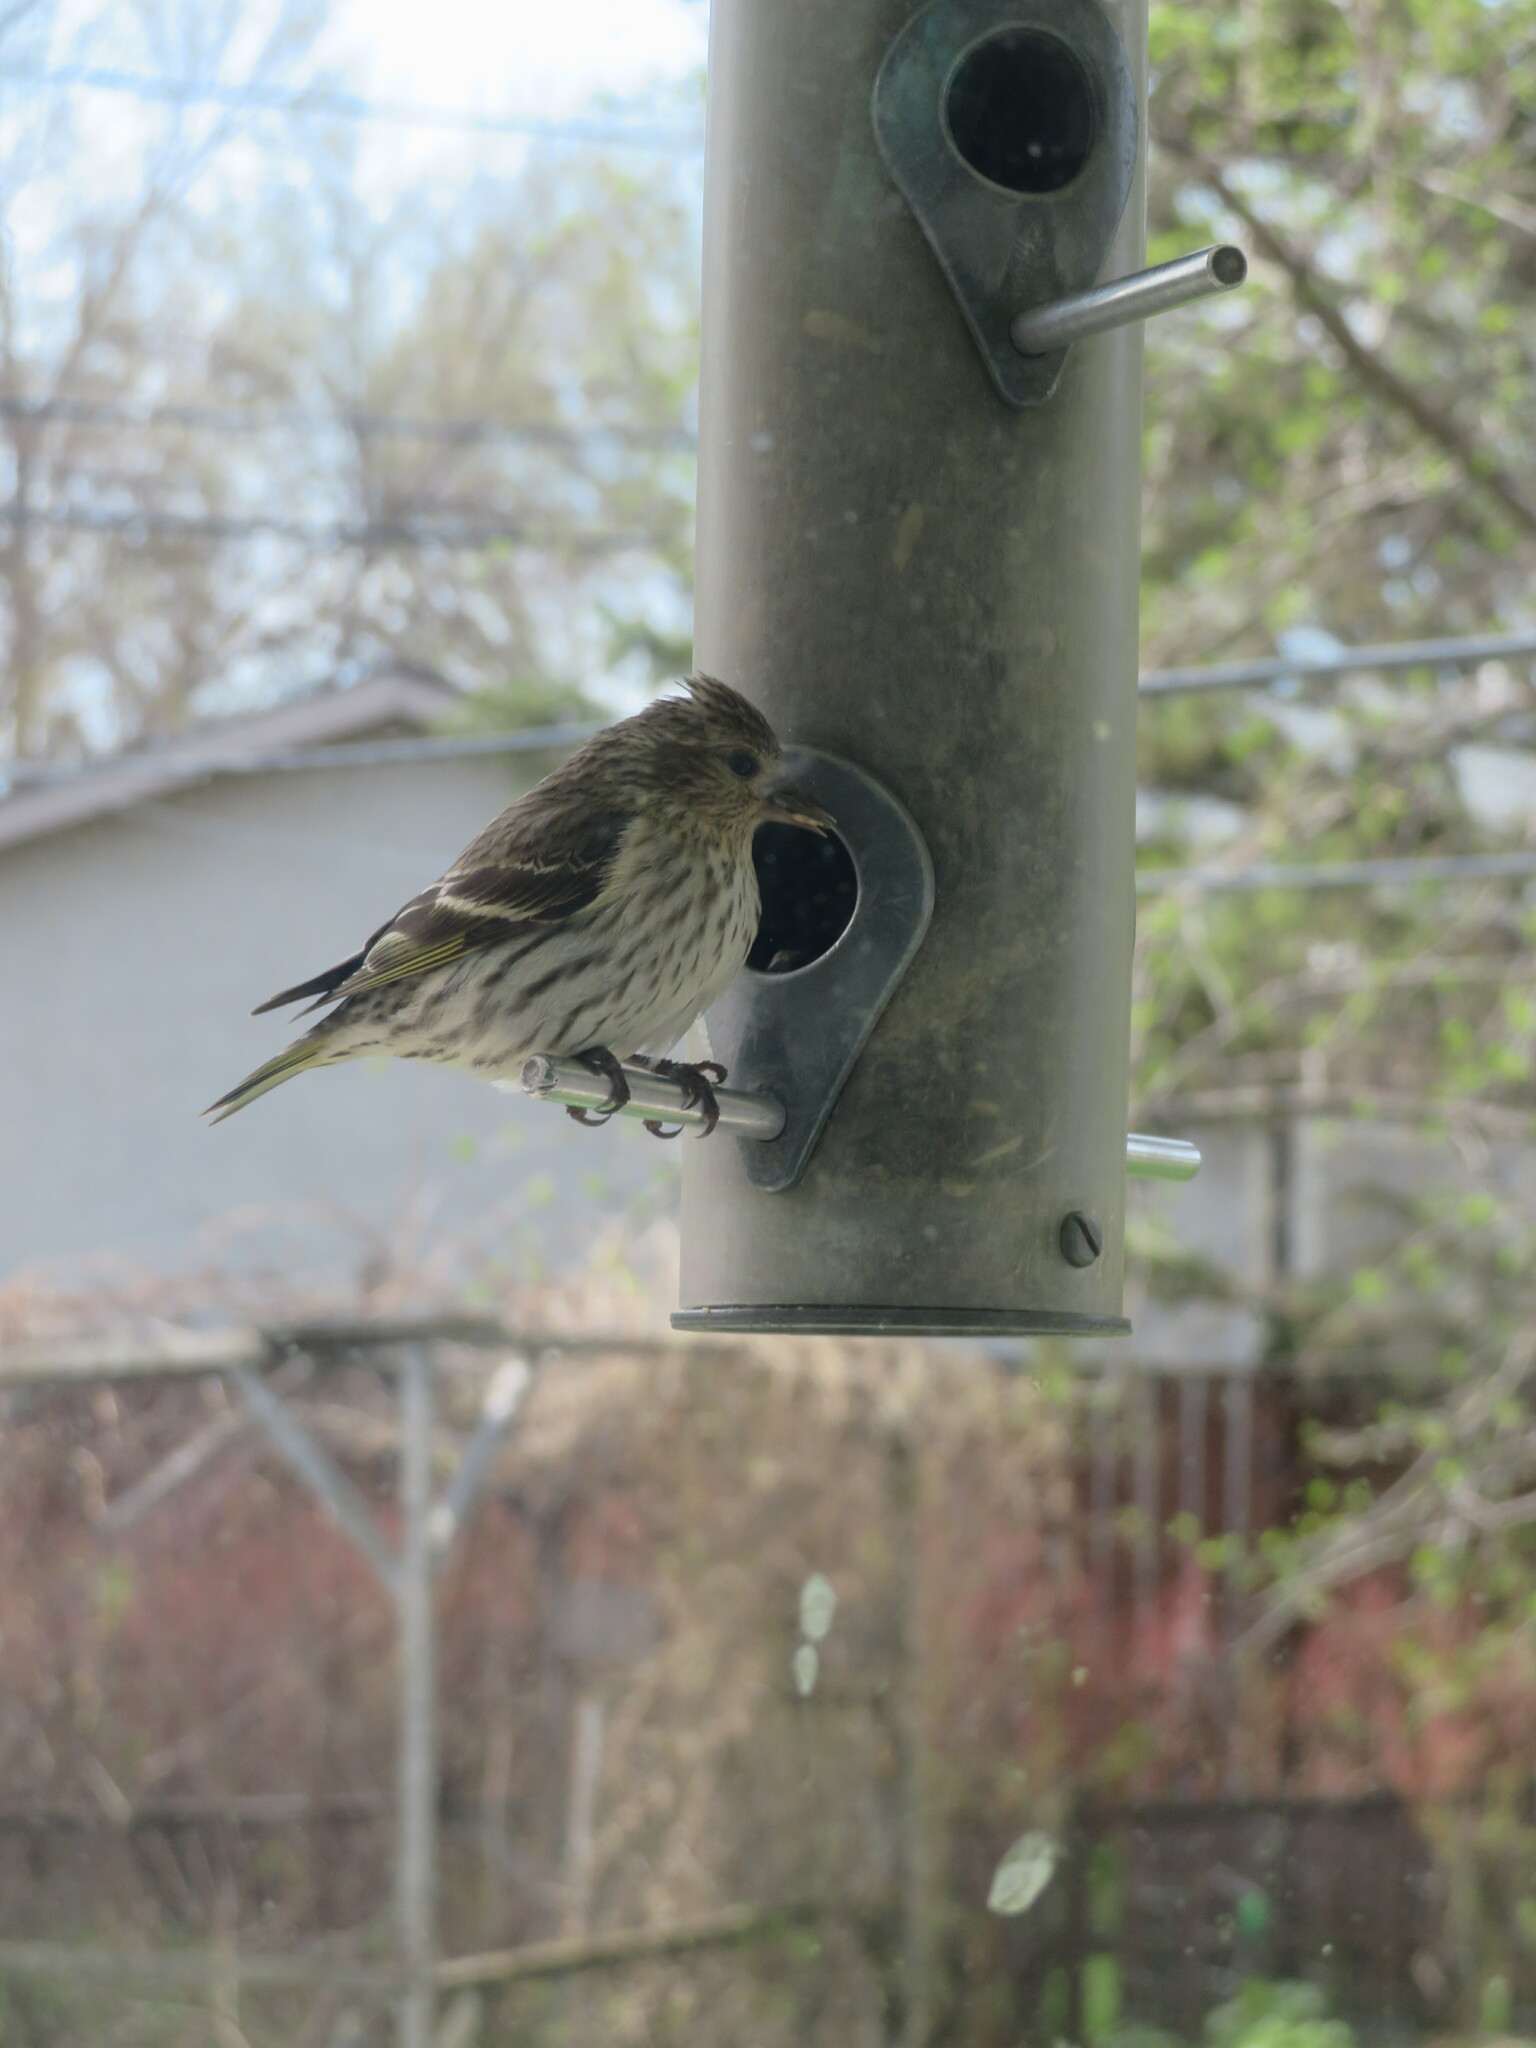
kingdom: Animalia
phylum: Chordata
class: Aves
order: Passeriformes
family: Fringillidae
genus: Spinus
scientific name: Spinus pinus
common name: Pine siskin
